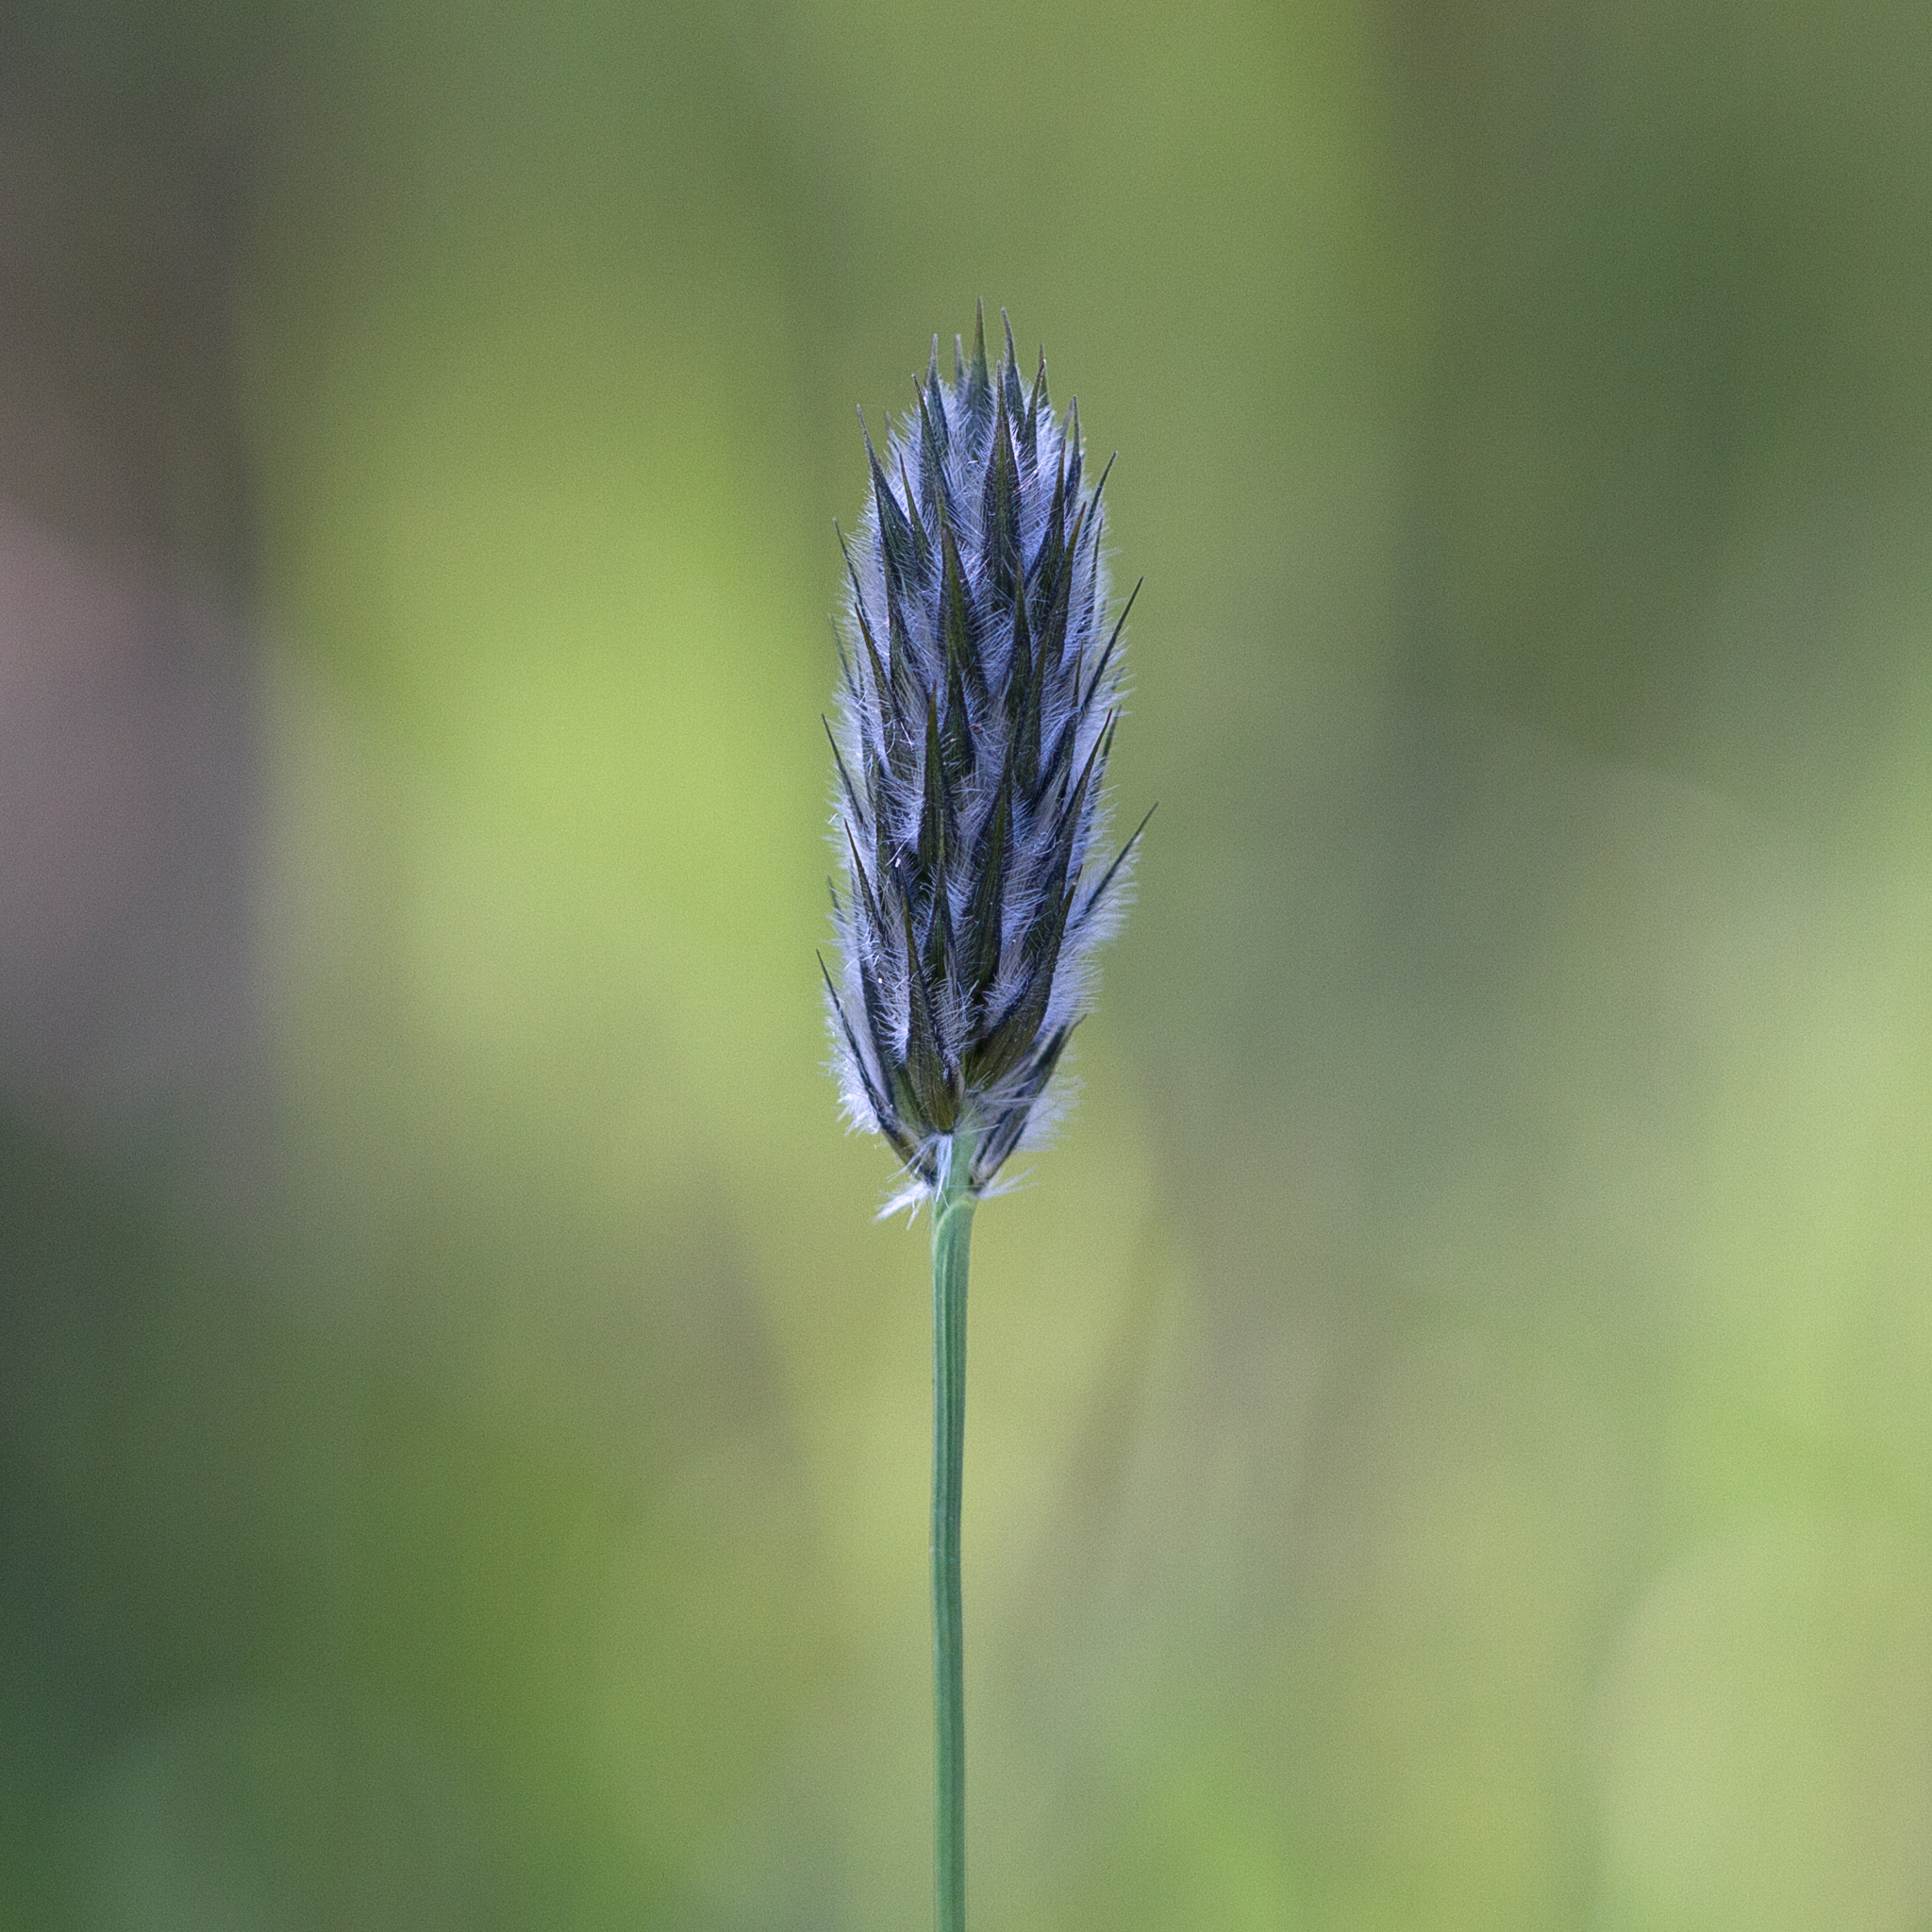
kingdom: Plantae
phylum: Tracheophyta
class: Liliopsida
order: Poales
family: Poaceae
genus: Neurachne
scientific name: Neurachne alopecuroidea
